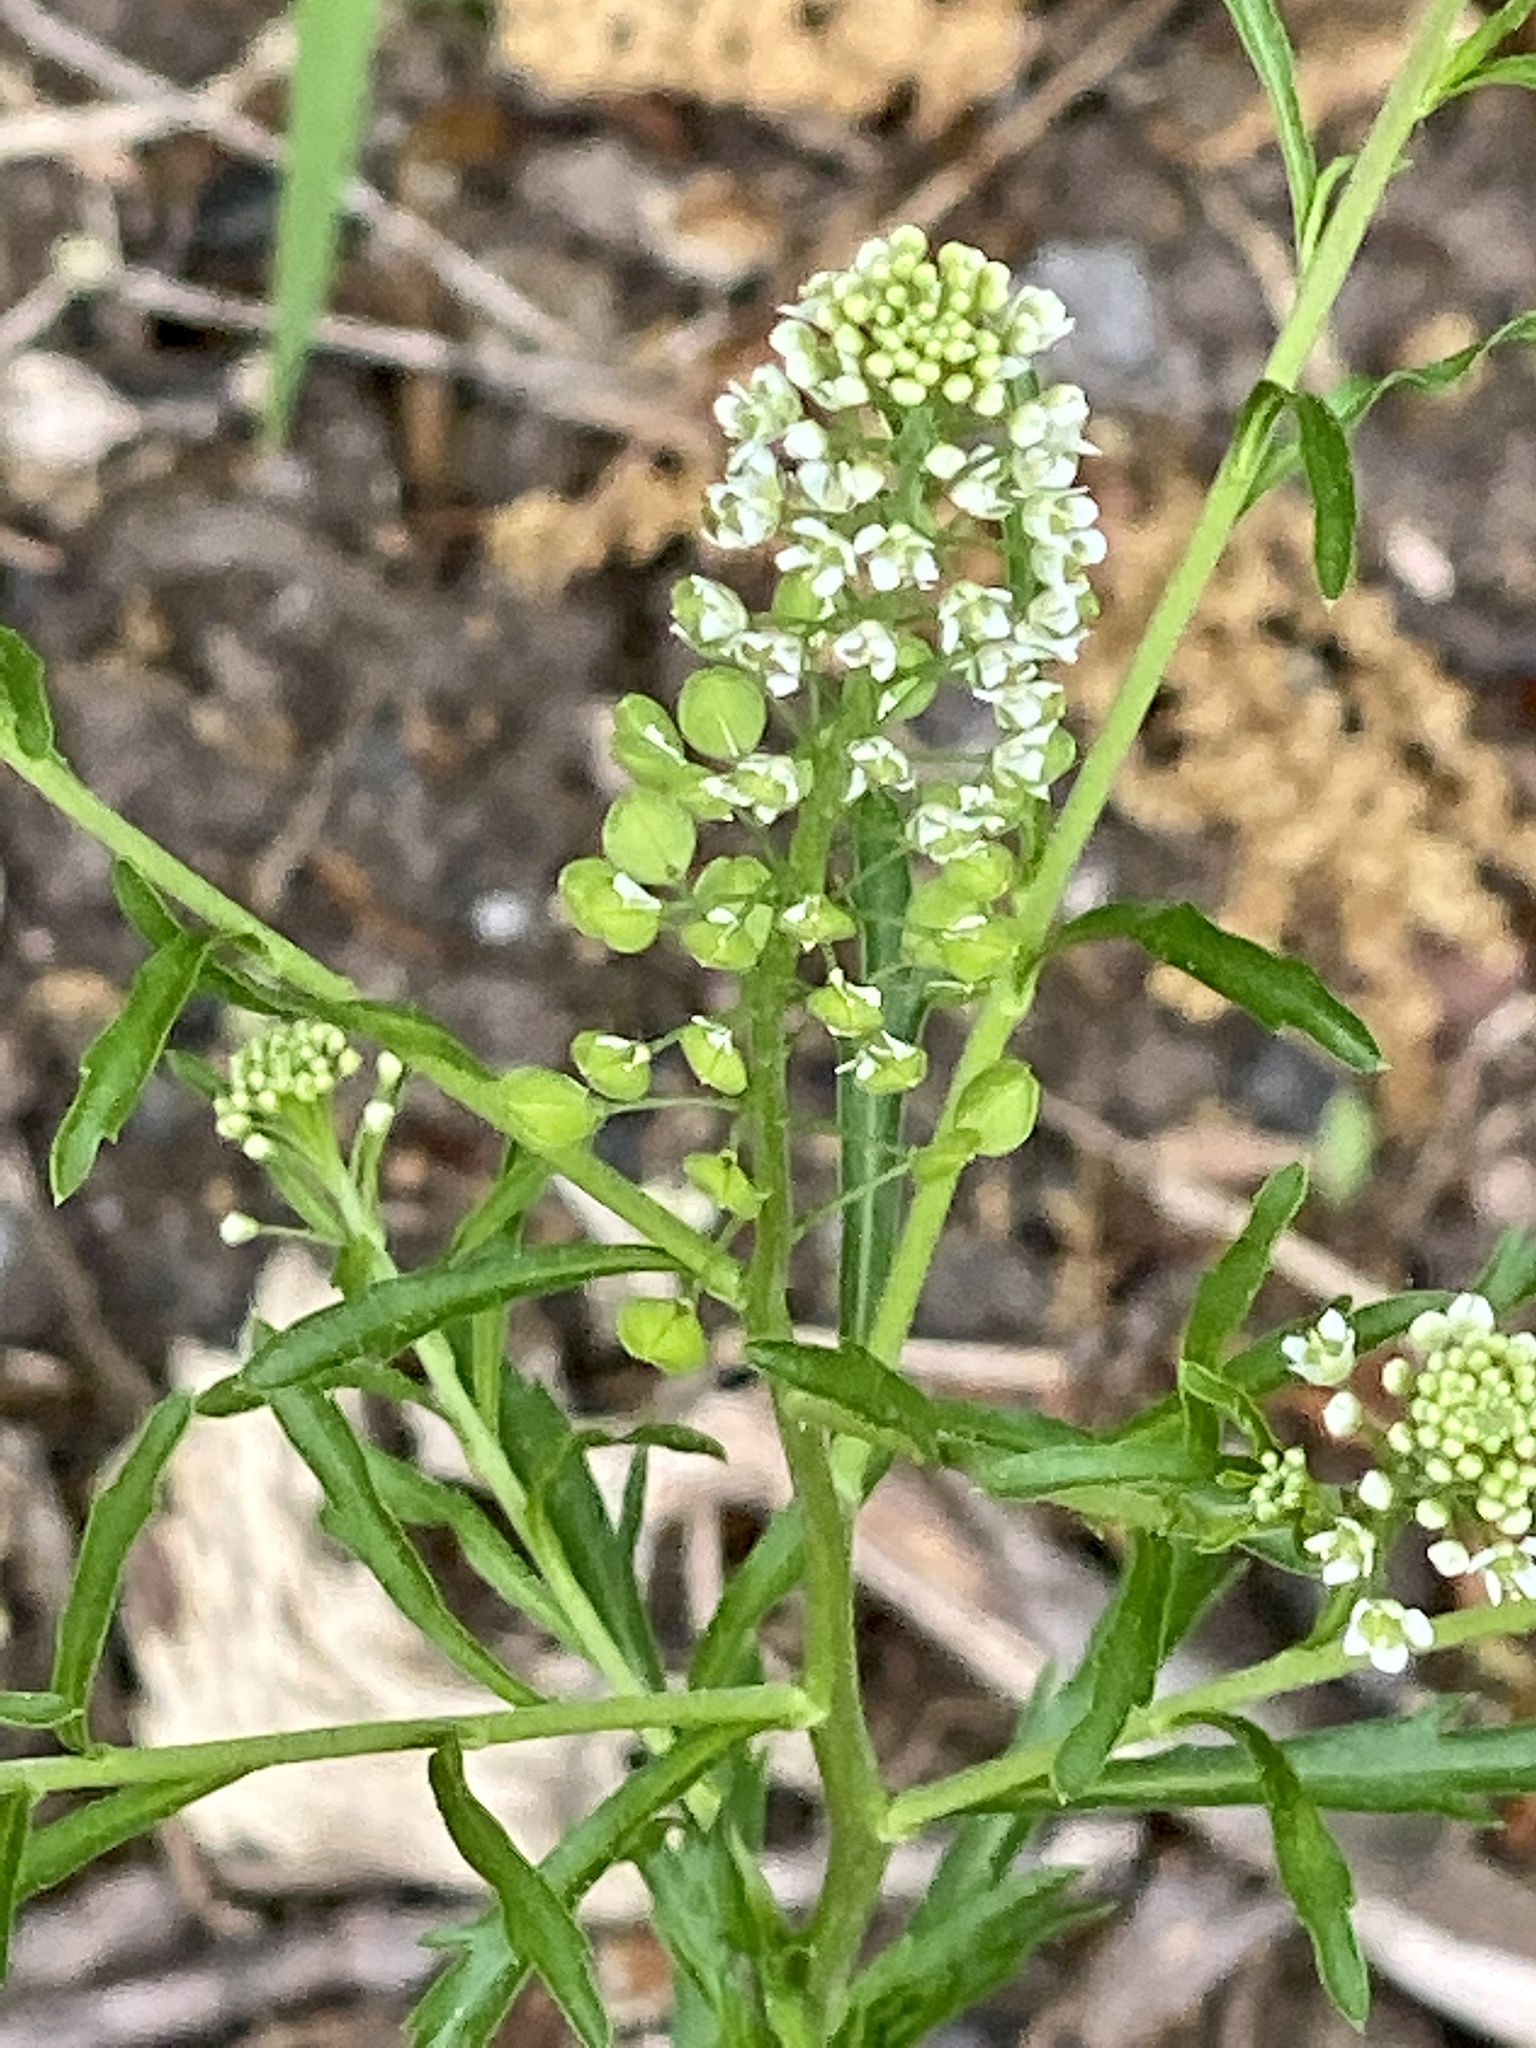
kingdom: Plantae
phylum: Tracheophyta
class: Magnoliopsida
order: Brassicales
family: Brassicaceae
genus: Lepidium
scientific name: Lepidium virginicum
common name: Least pepperwort
